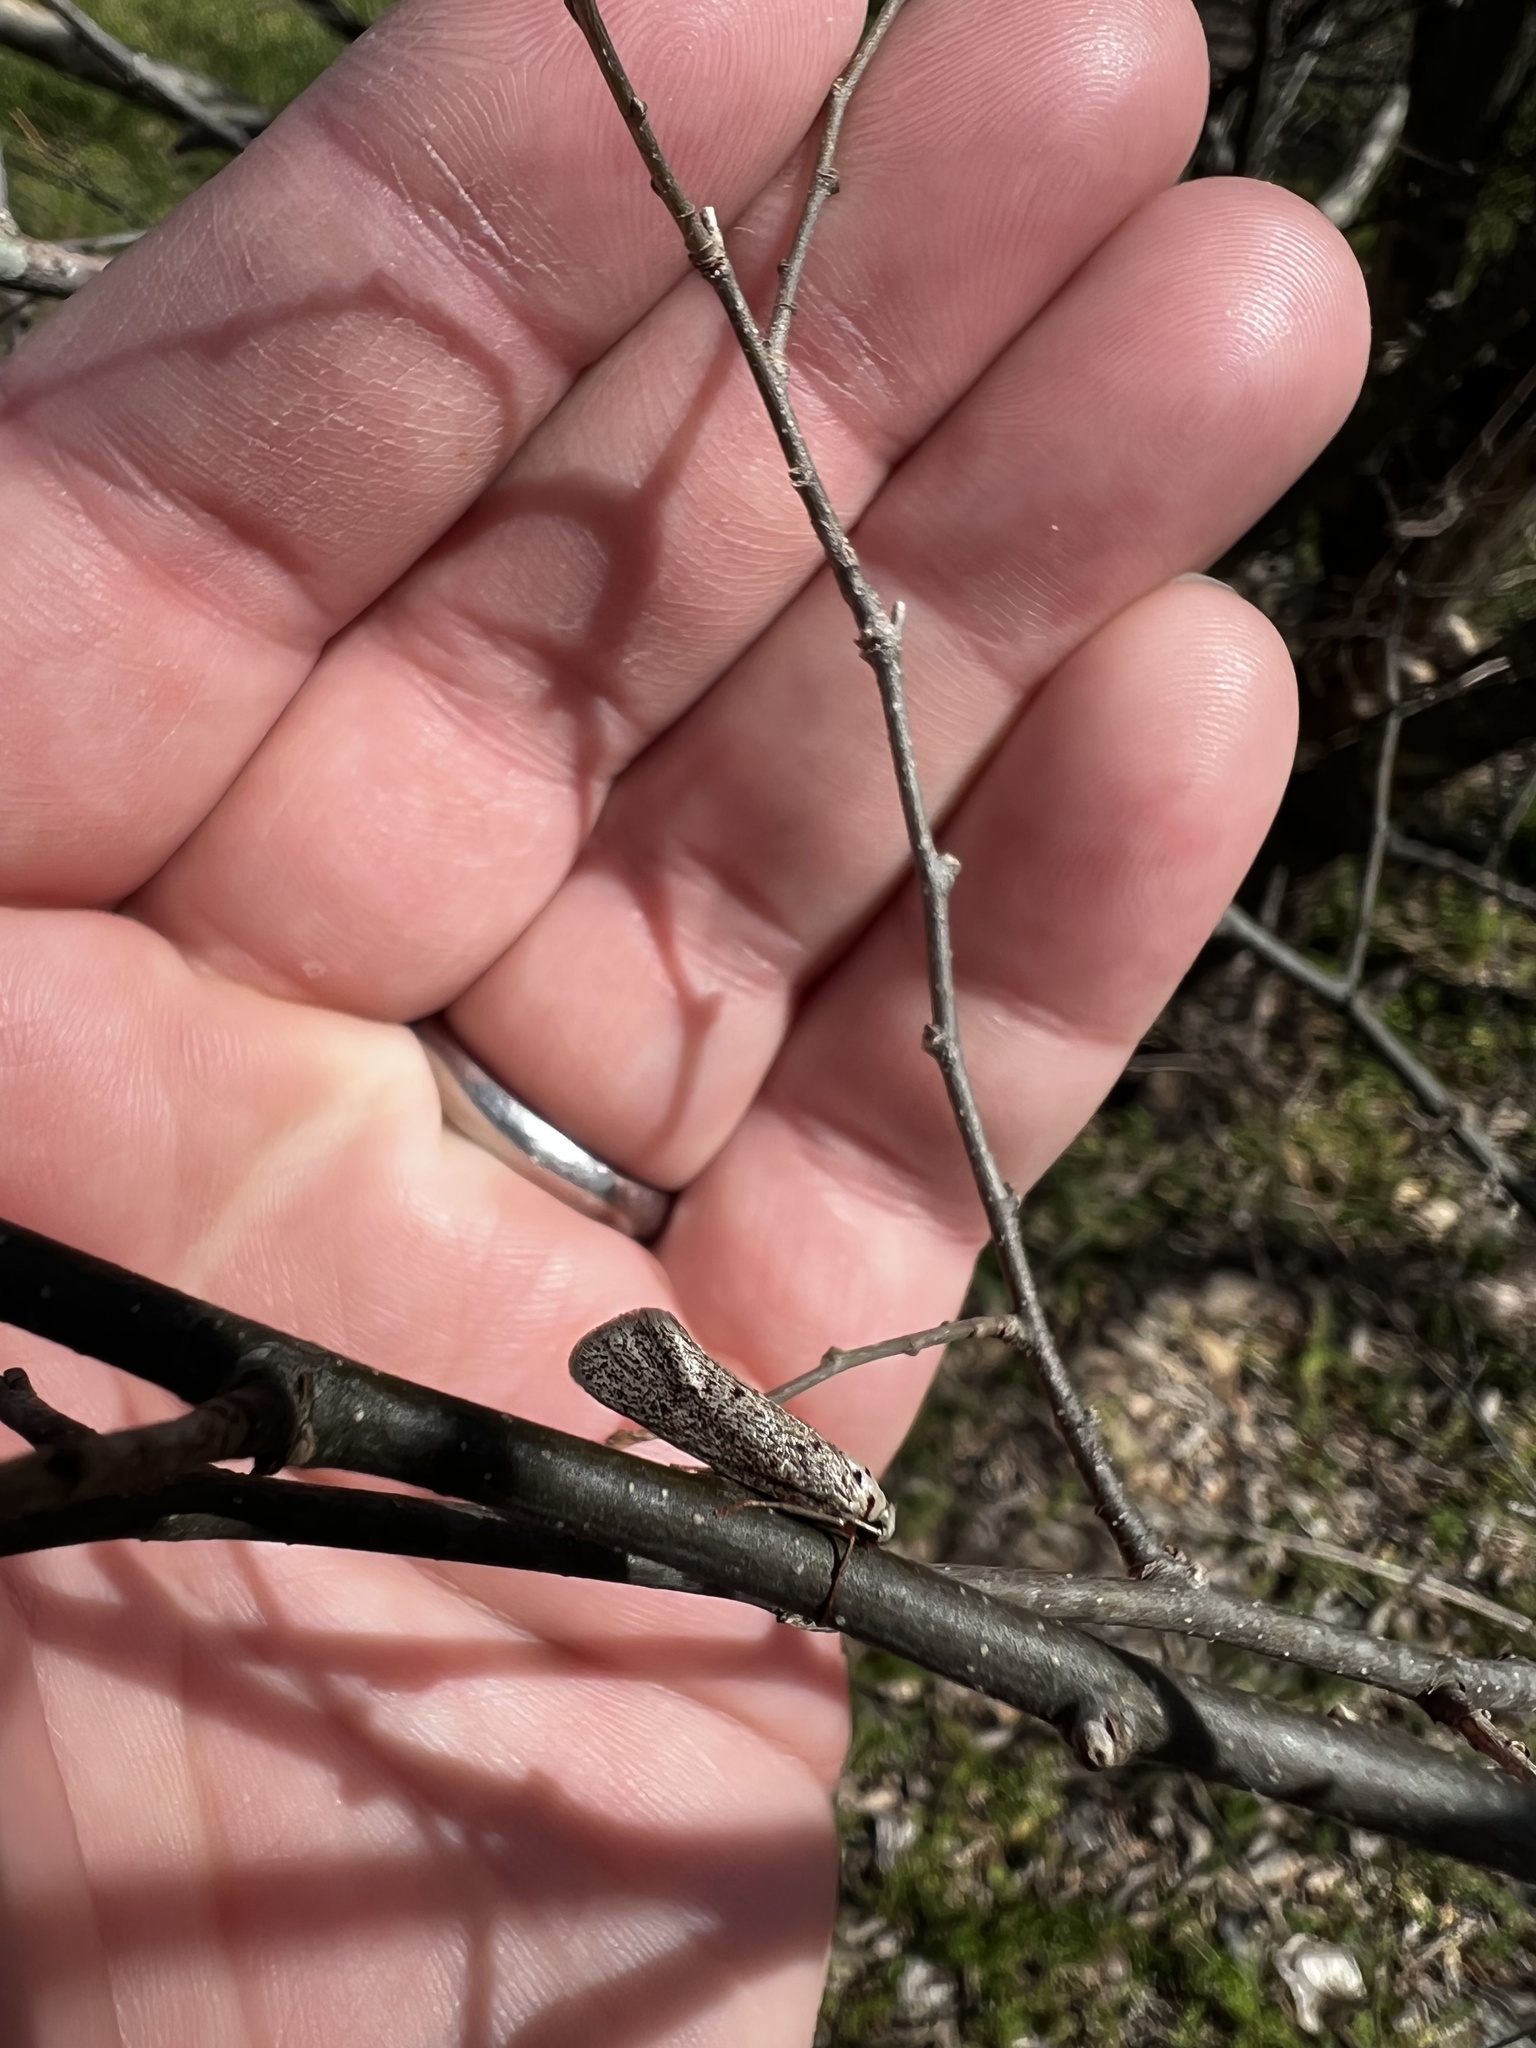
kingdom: Animalia
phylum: Arthropoda
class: Insecta
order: Lepidoptera
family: Lacturidae
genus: Lactura
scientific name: Lactura
